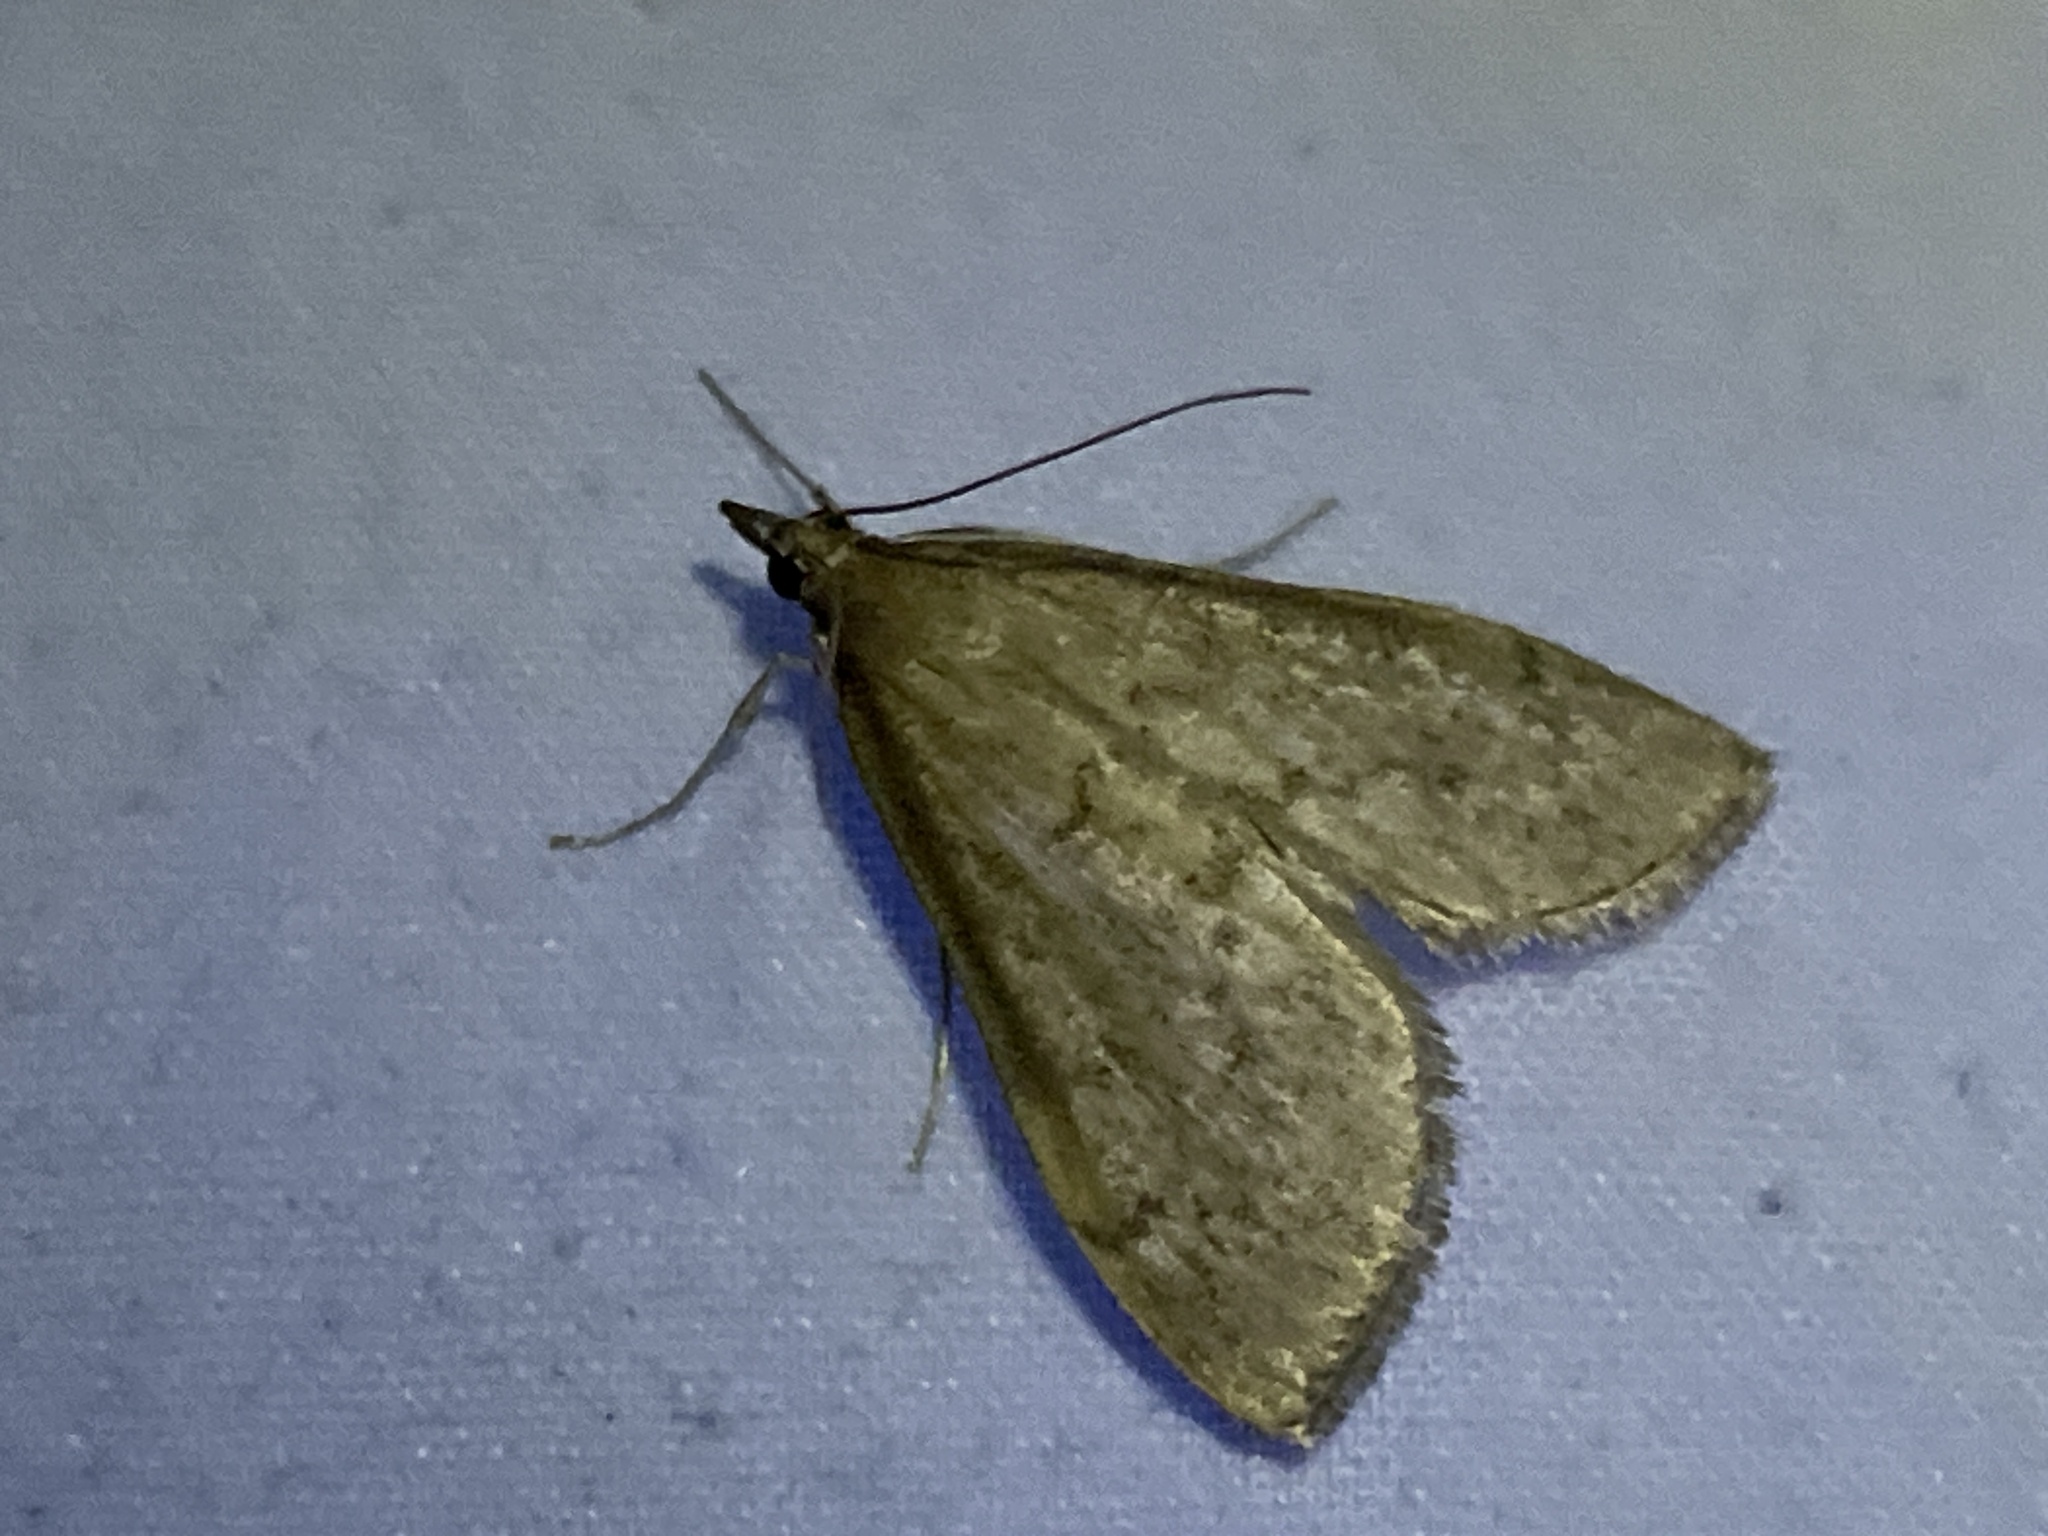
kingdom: Animalia
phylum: Arthropoda
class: Insecta
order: Lepidoptera
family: Crambidae
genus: Saucrobotys
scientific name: Saucrobotys futilalis
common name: Dogbane saucrobotys moth
